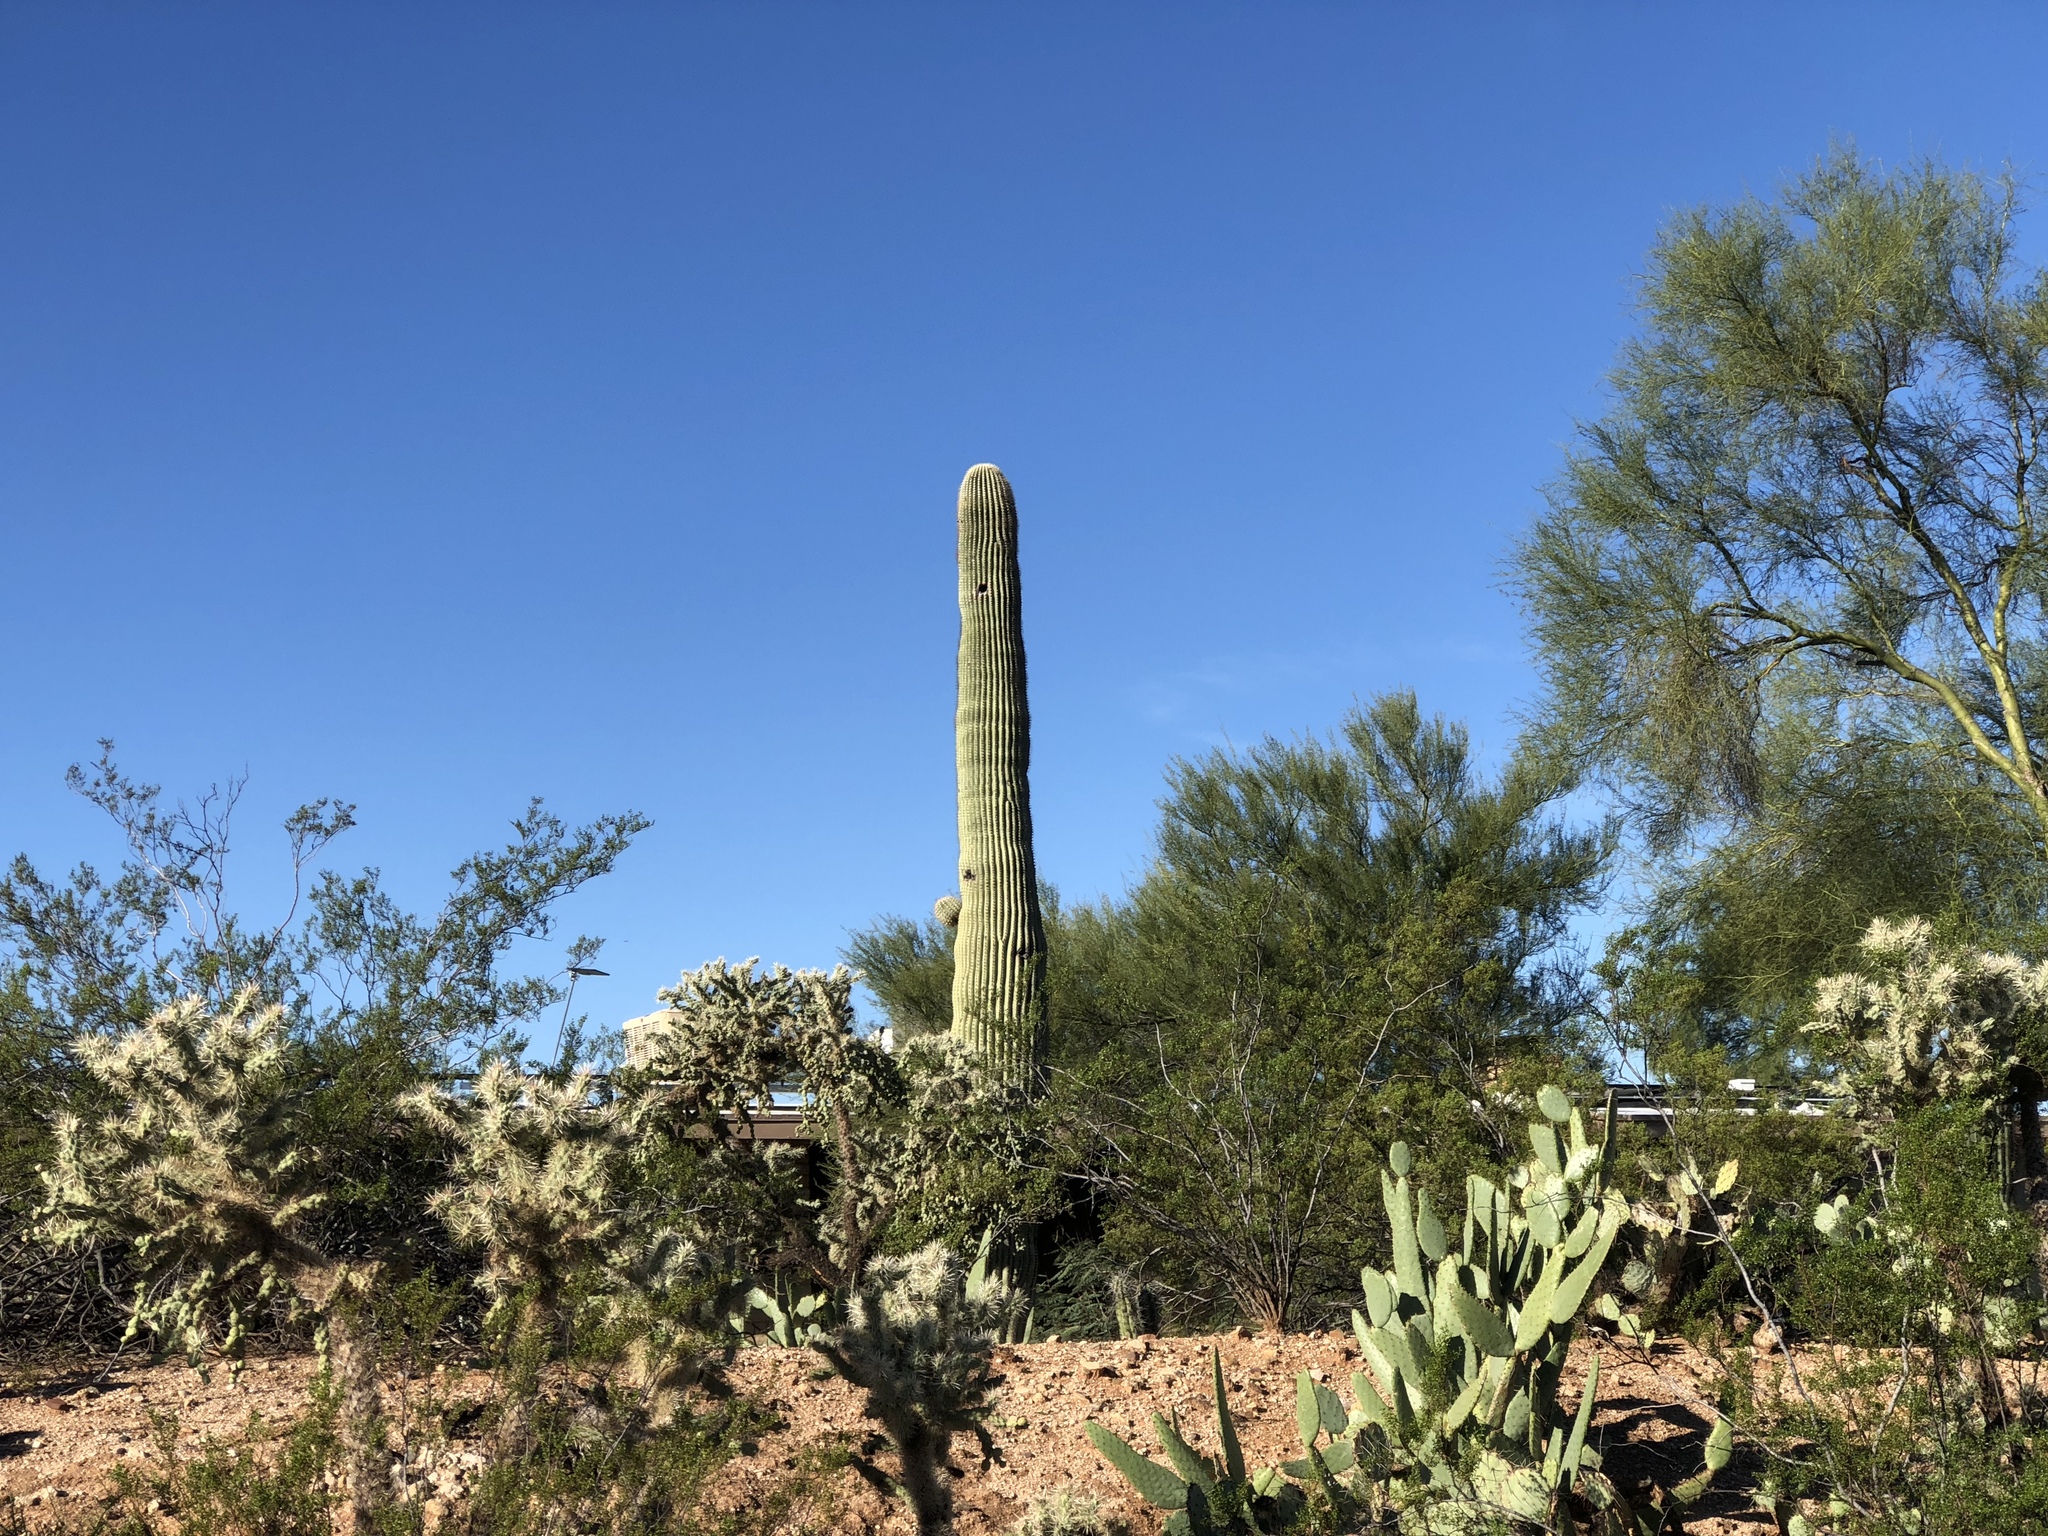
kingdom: Plantae
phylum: Tracheophyta
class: Magnoliopsida
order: Caryophyllales
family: Cactaceae
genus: Carnegiea
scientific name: Carnegiea gigantea
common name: Saguaro
